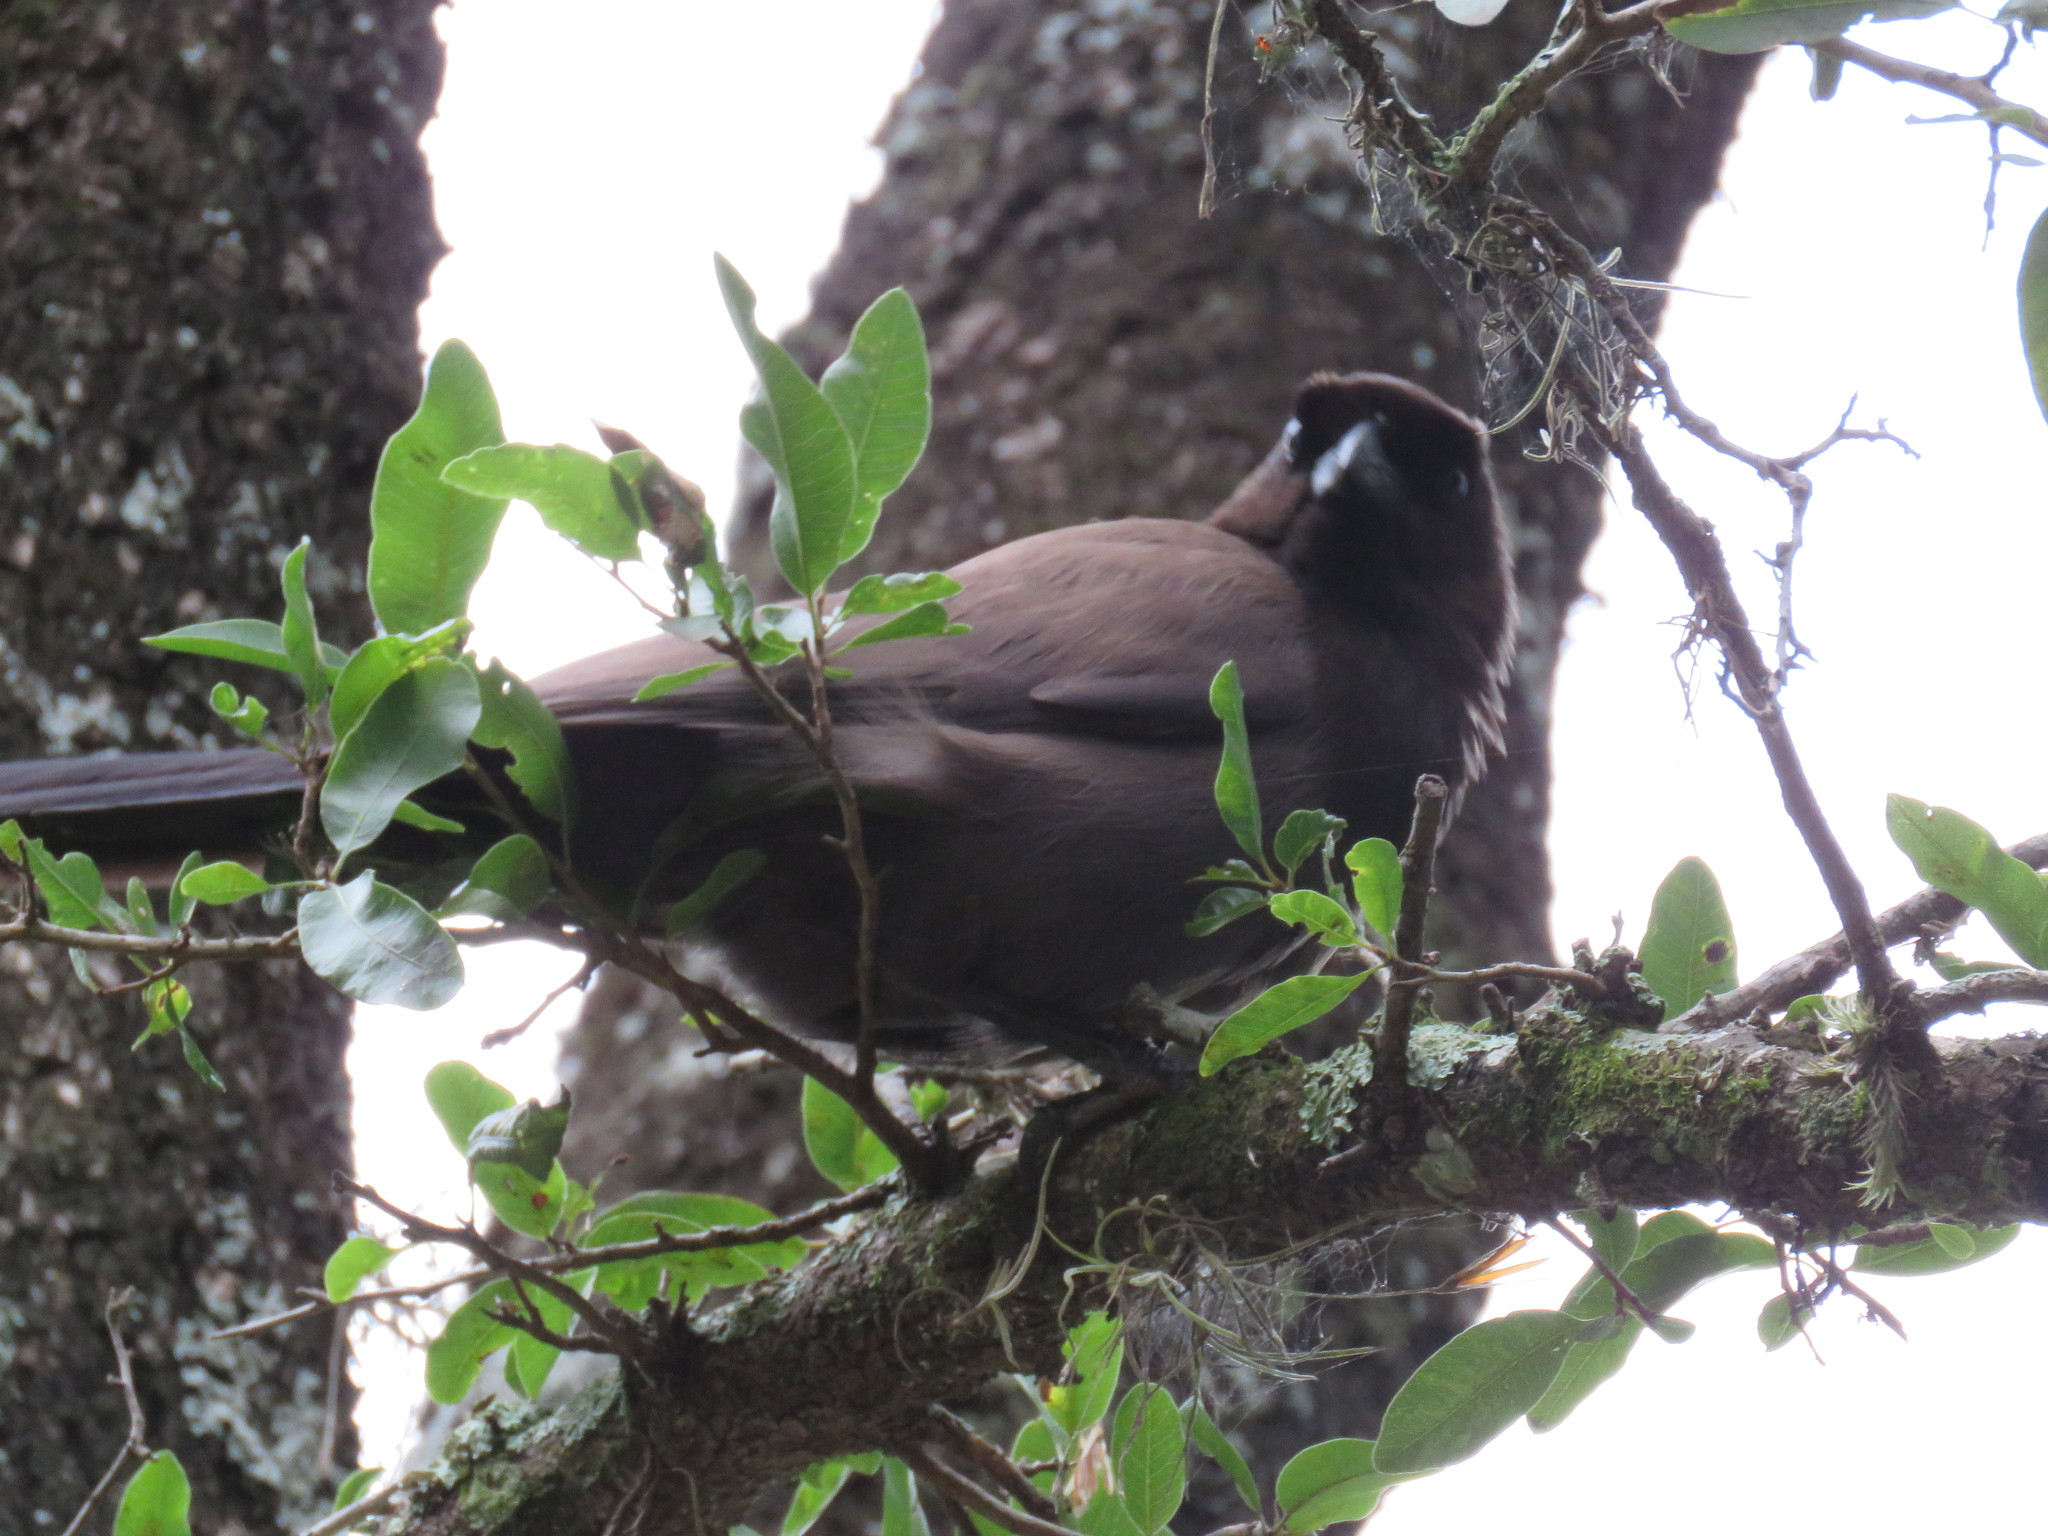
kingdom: Animalia
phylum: Chordata
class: Aves
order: Passeriformes
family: Corvidae
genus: Cyanocorax
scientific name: Cyanocorax cyanomelas
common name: Purplish jay
